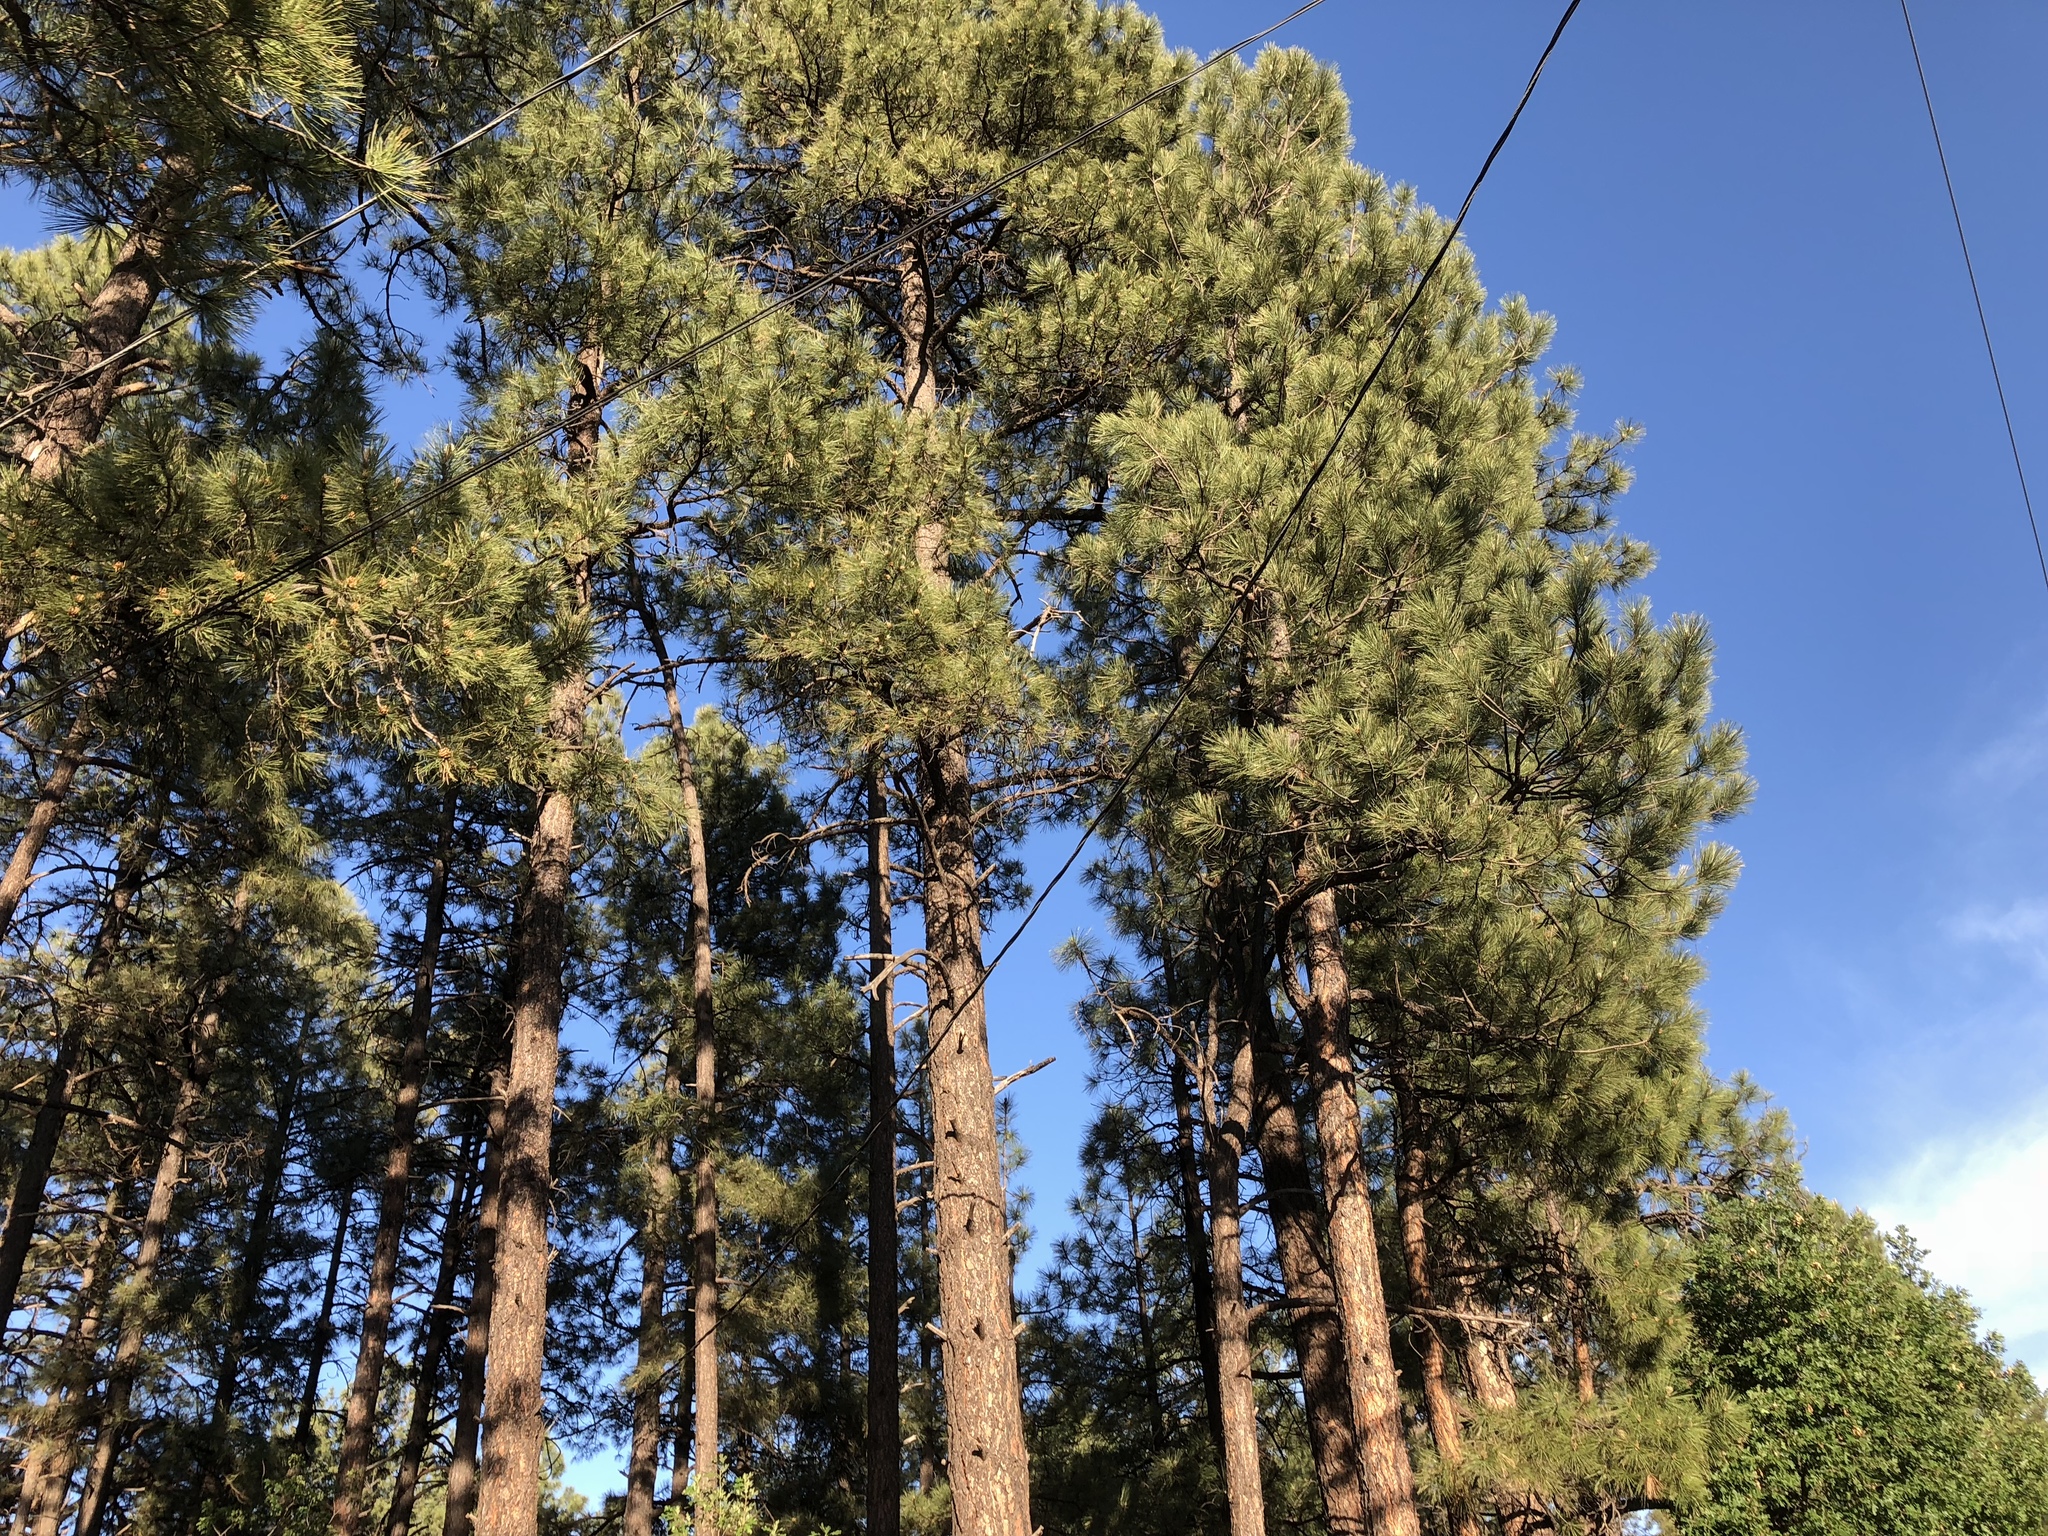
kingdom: Plantae
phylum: Tracheophyta
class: Pinopsida
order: Pinales
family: Pinaceae
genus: Pinus
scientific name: Pinus ponderosa
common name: Western yellow-pine
